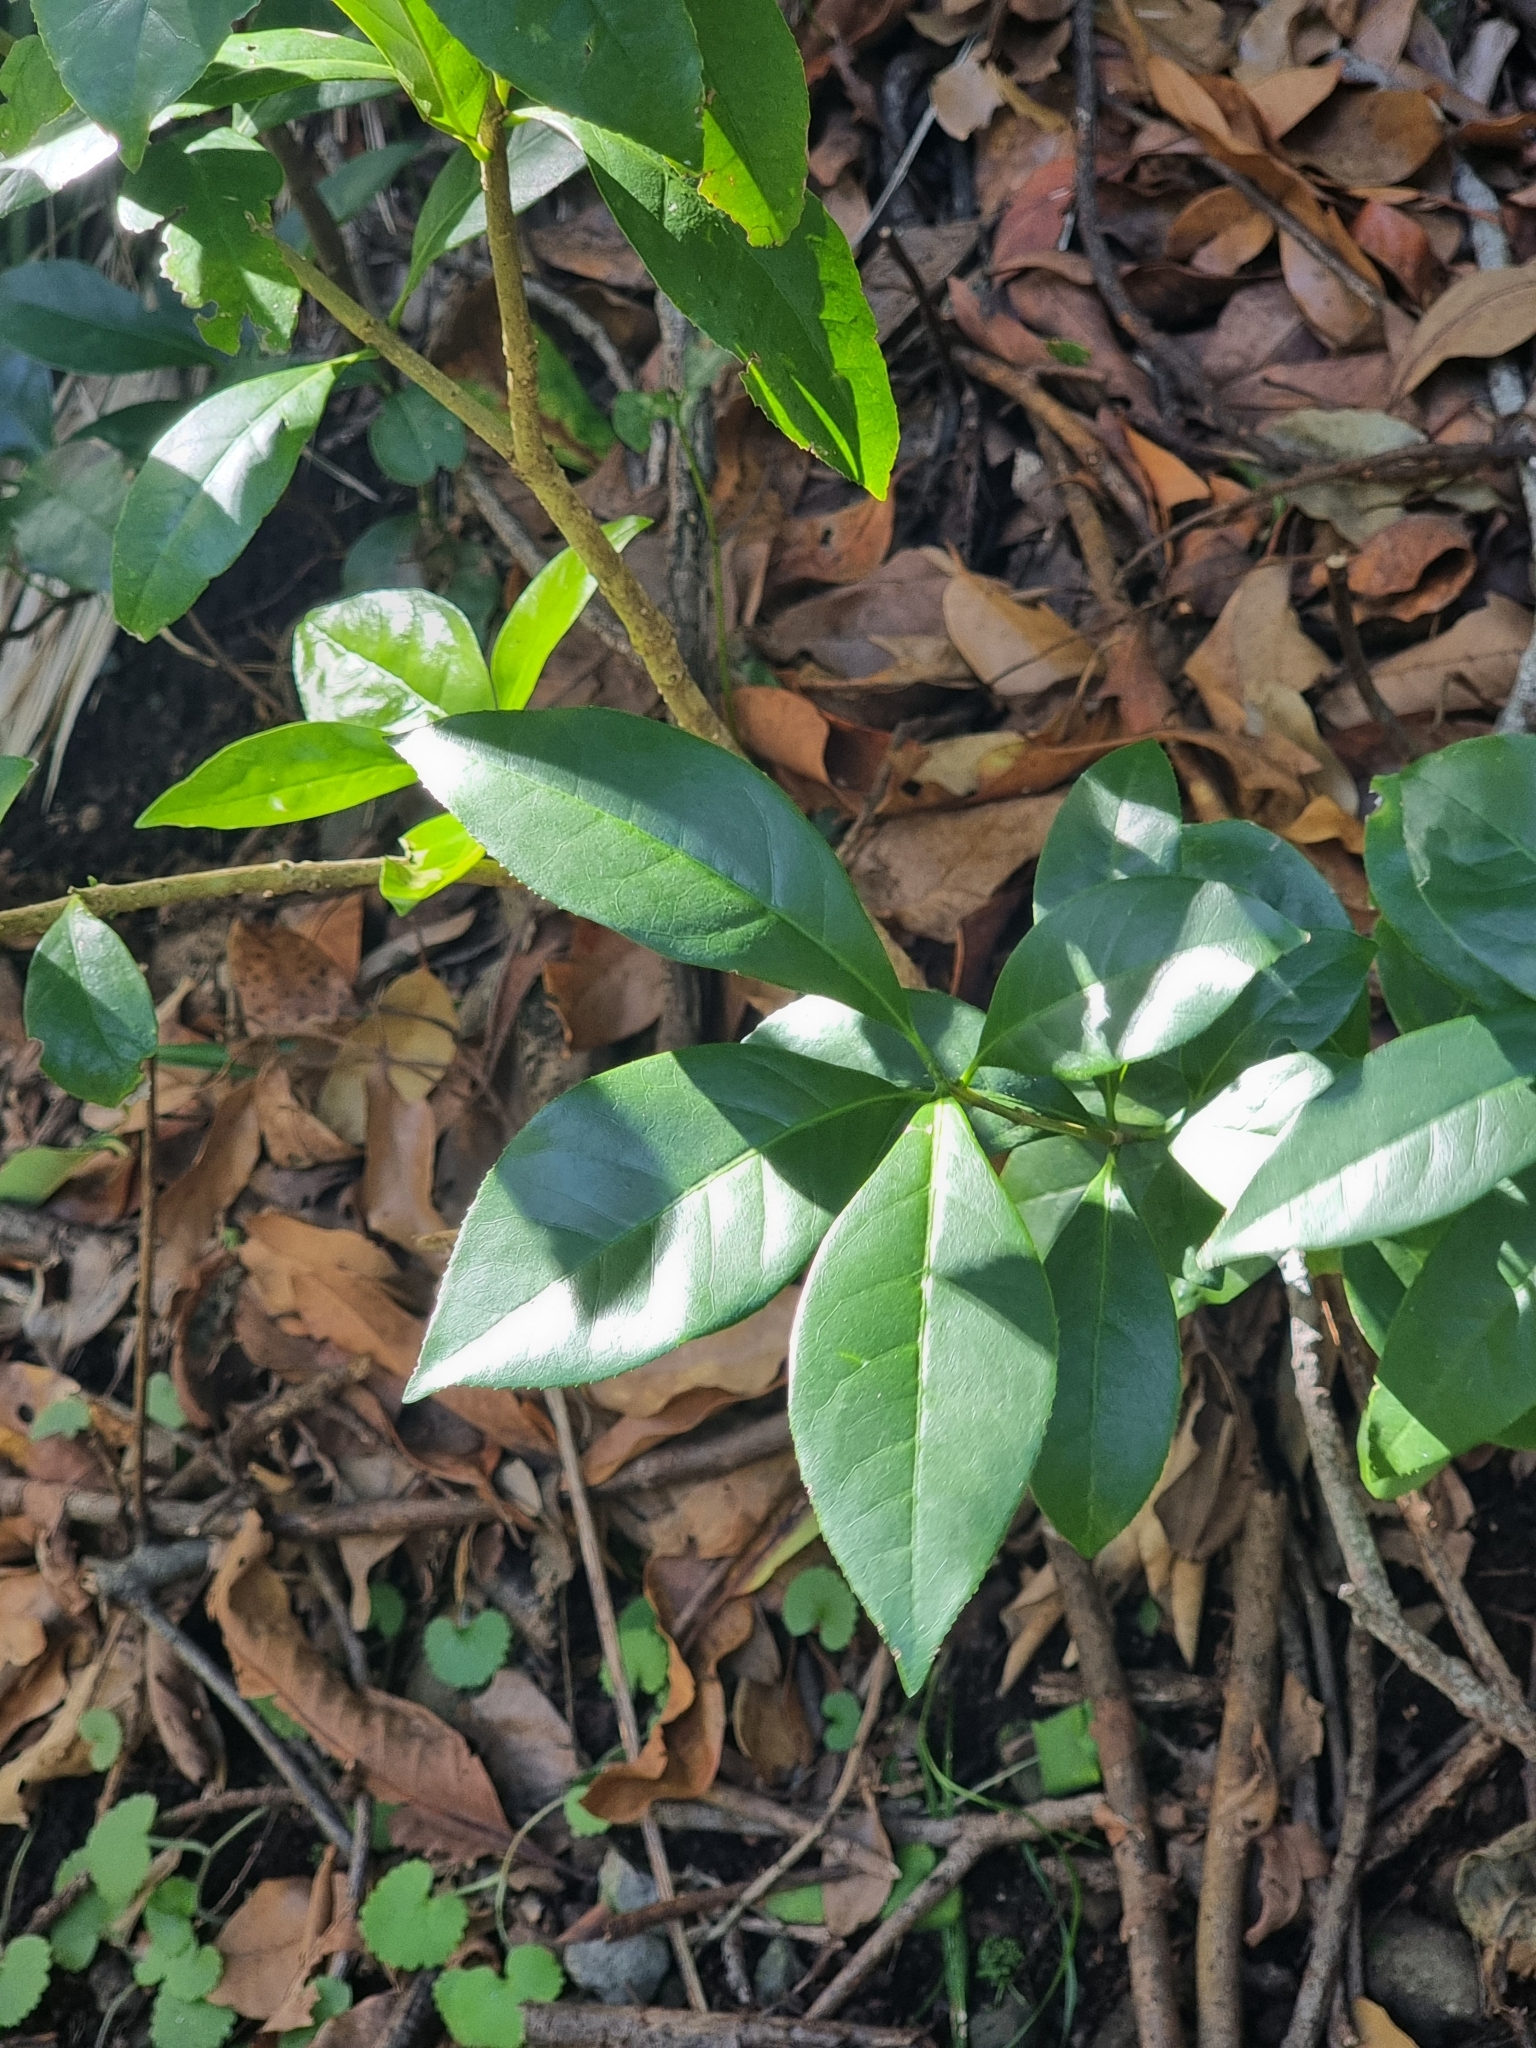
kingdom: Plantae
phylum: Tracheophyta
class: Magnoliopsida
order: Lamiales
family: Oleaceae
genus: Picconia
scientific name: Picconia excelsa
